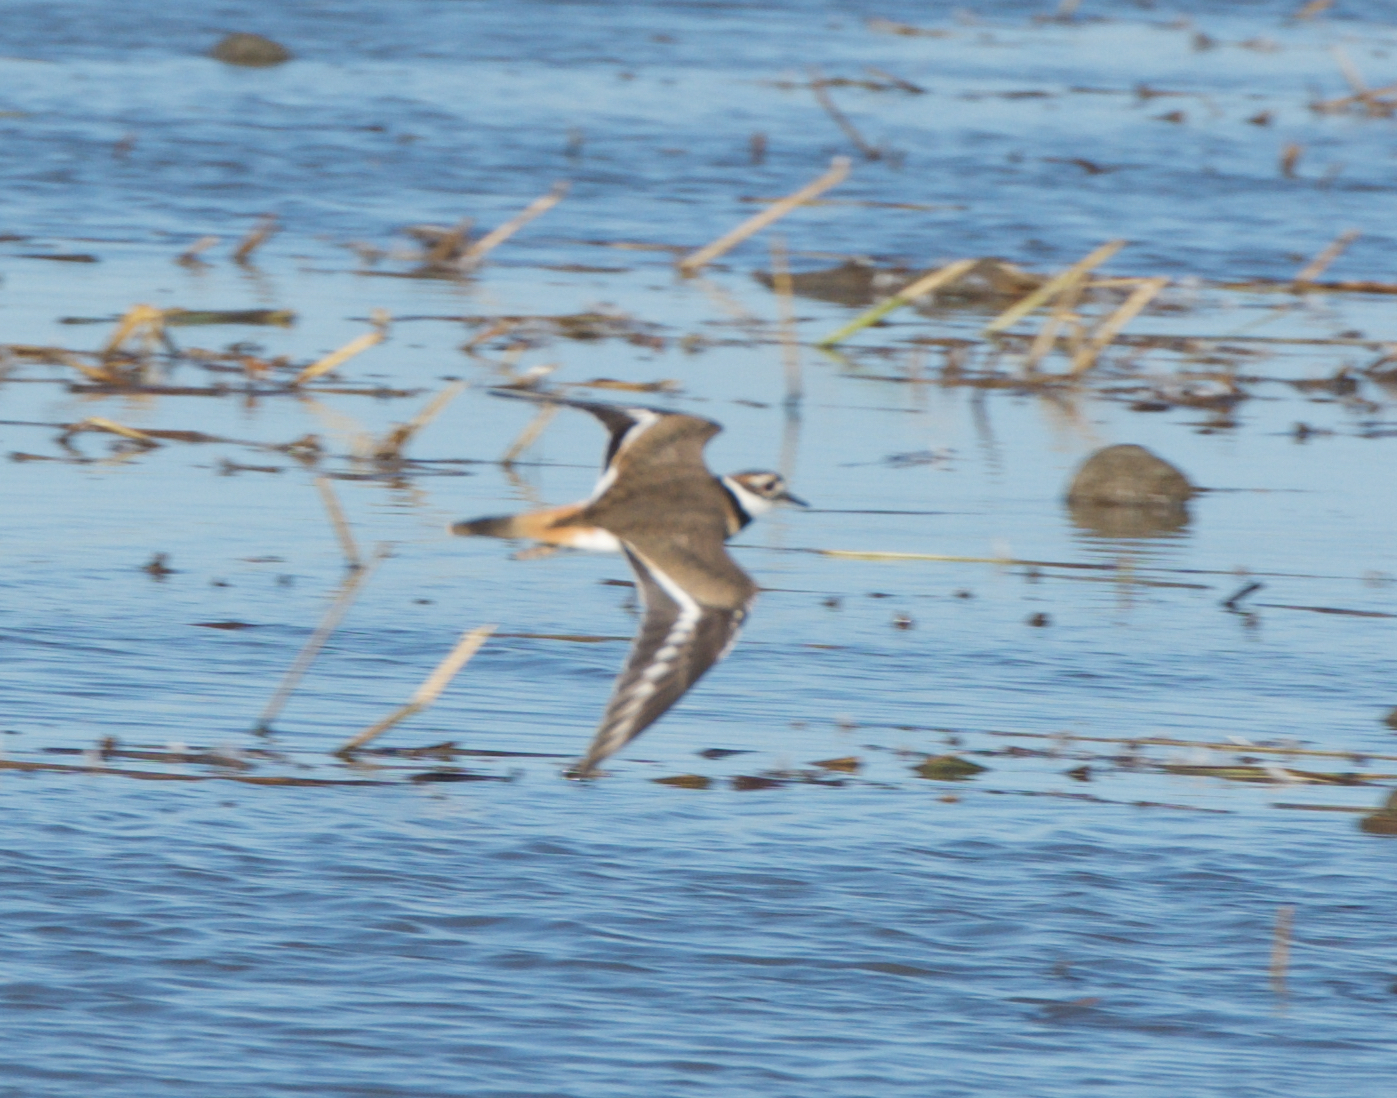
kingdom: Animalia
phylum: Chordata
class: Aves
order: Charadriiformes
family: Charadriidae
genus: Charadrius
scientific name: Charadrius vociferus
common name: Killdeer
